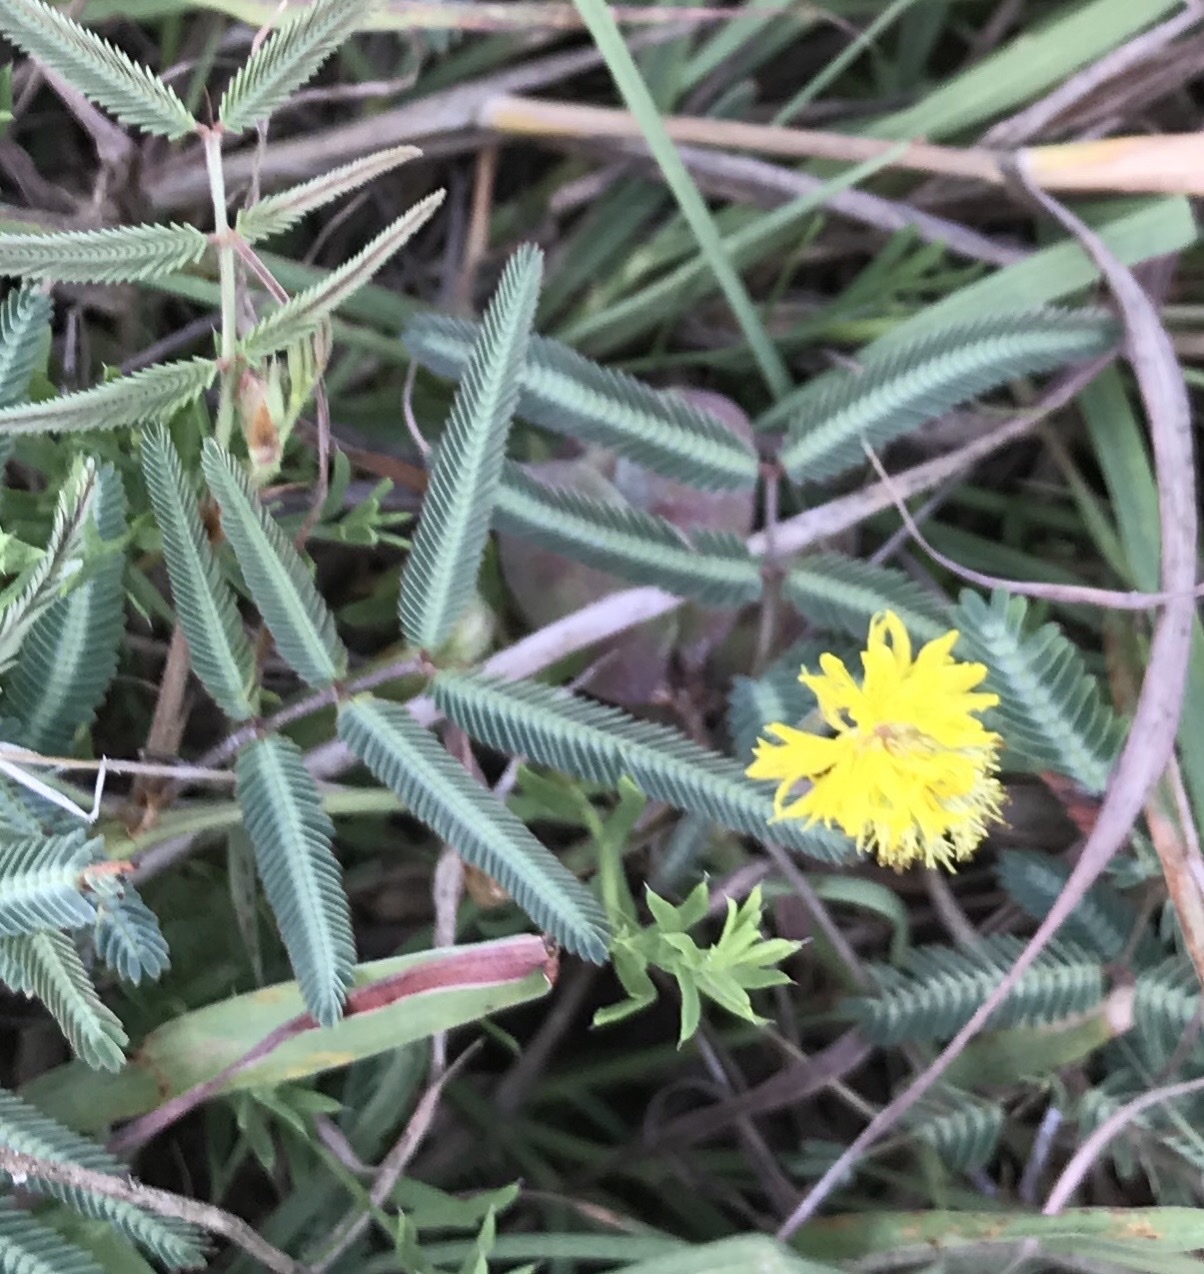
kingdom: Plantae
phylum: Tracheophyta
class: Magnoliopsida
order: Fabales
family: Fabaceae
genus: Neptunia
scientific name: Neptunia pubescens
